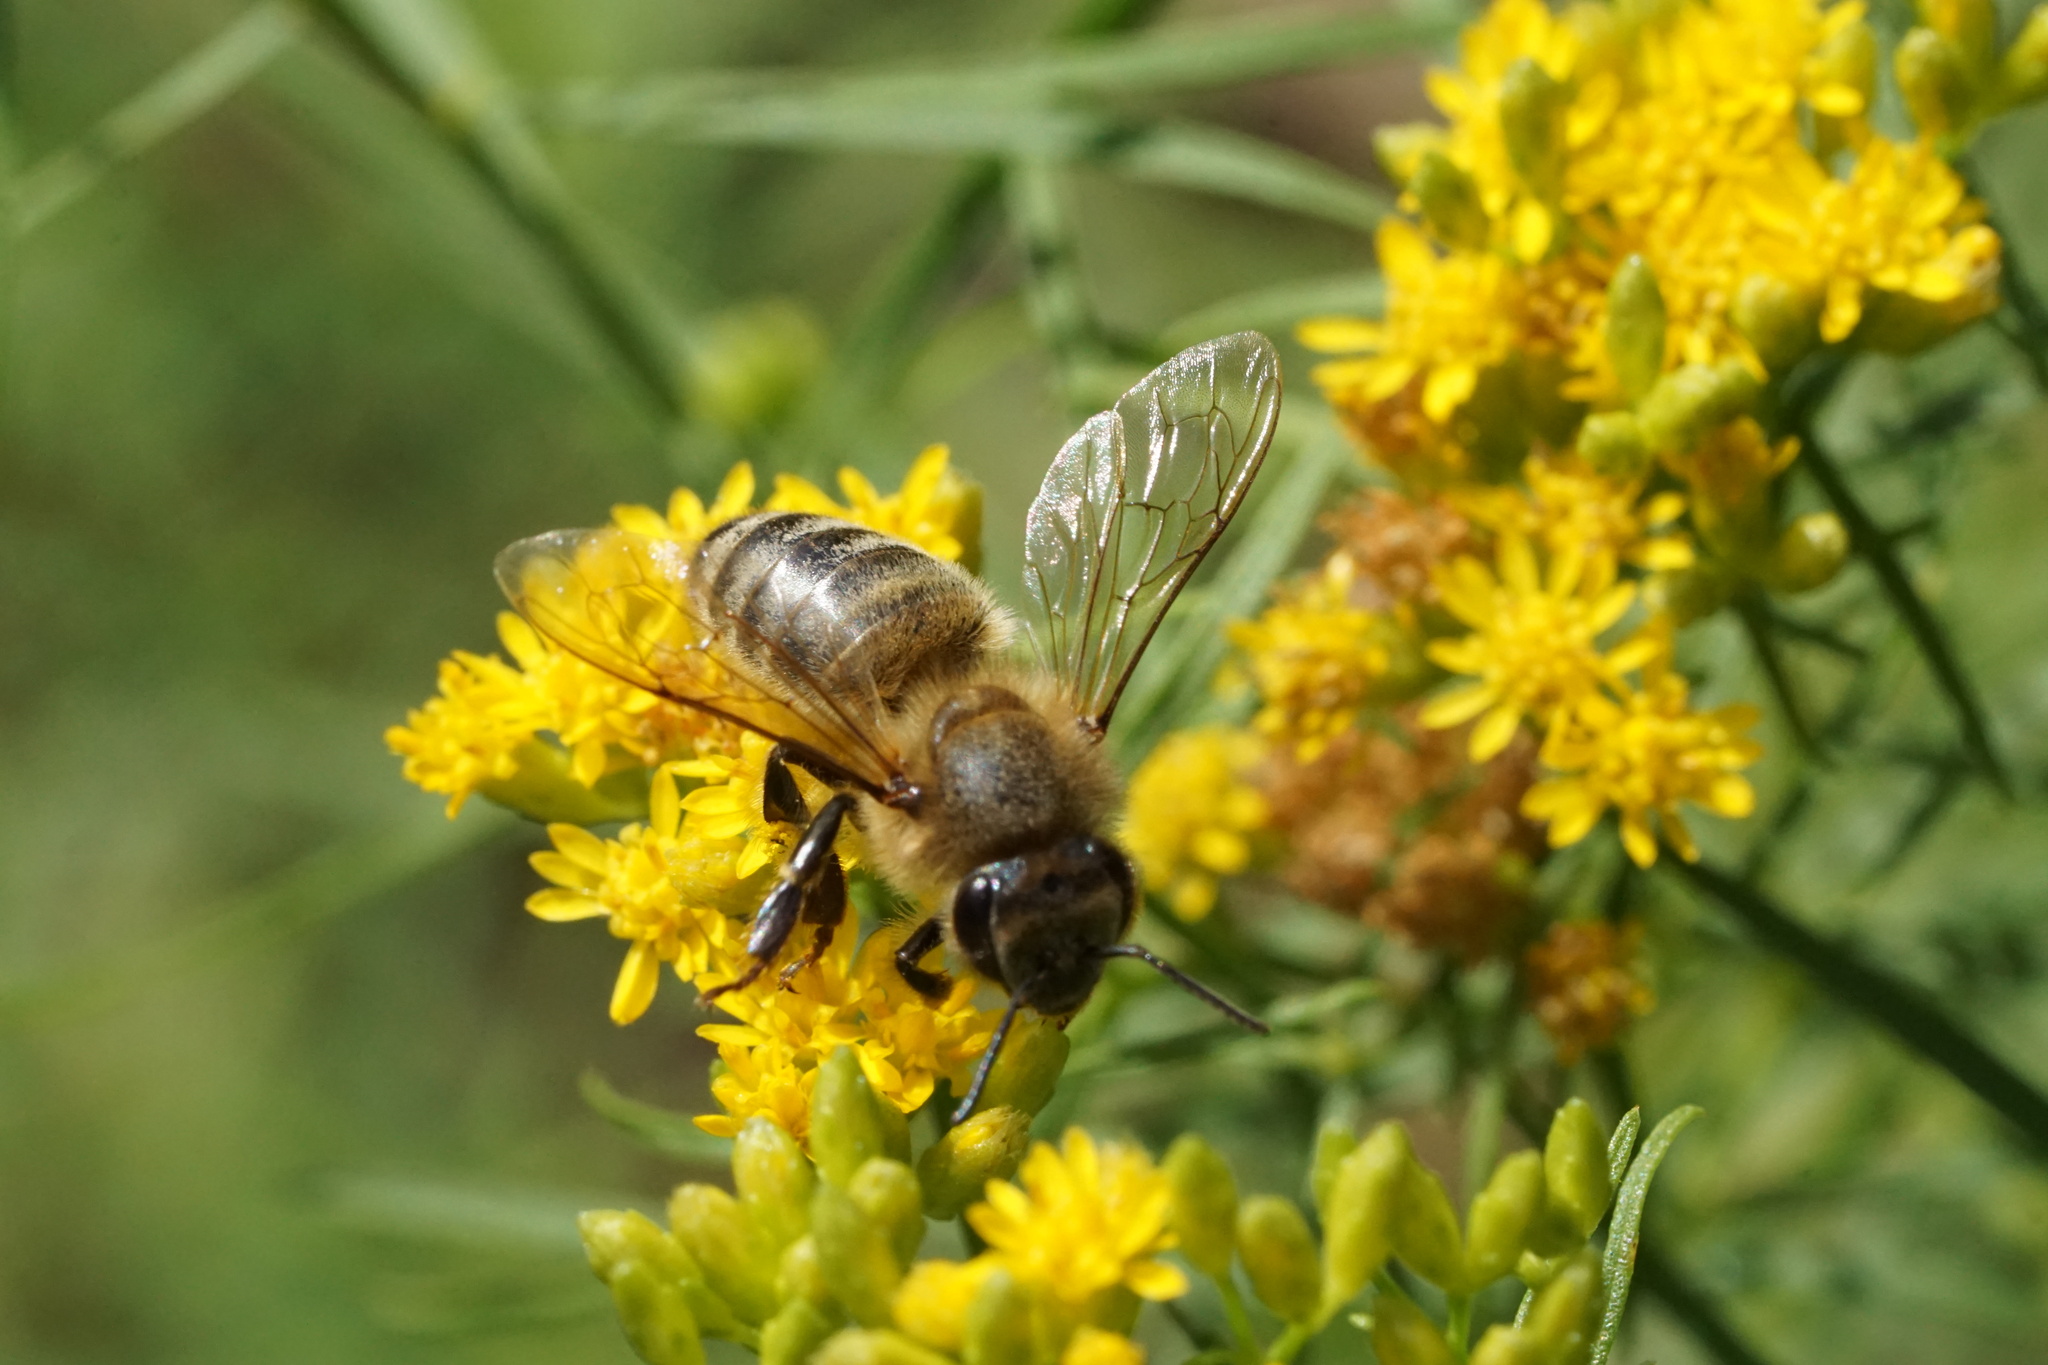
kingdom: Animalia
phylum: Arthropoda
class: Insecta
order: Hymenoptera
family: Apidae
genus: Apis
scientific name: Apis mellifera
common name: Honey bee
